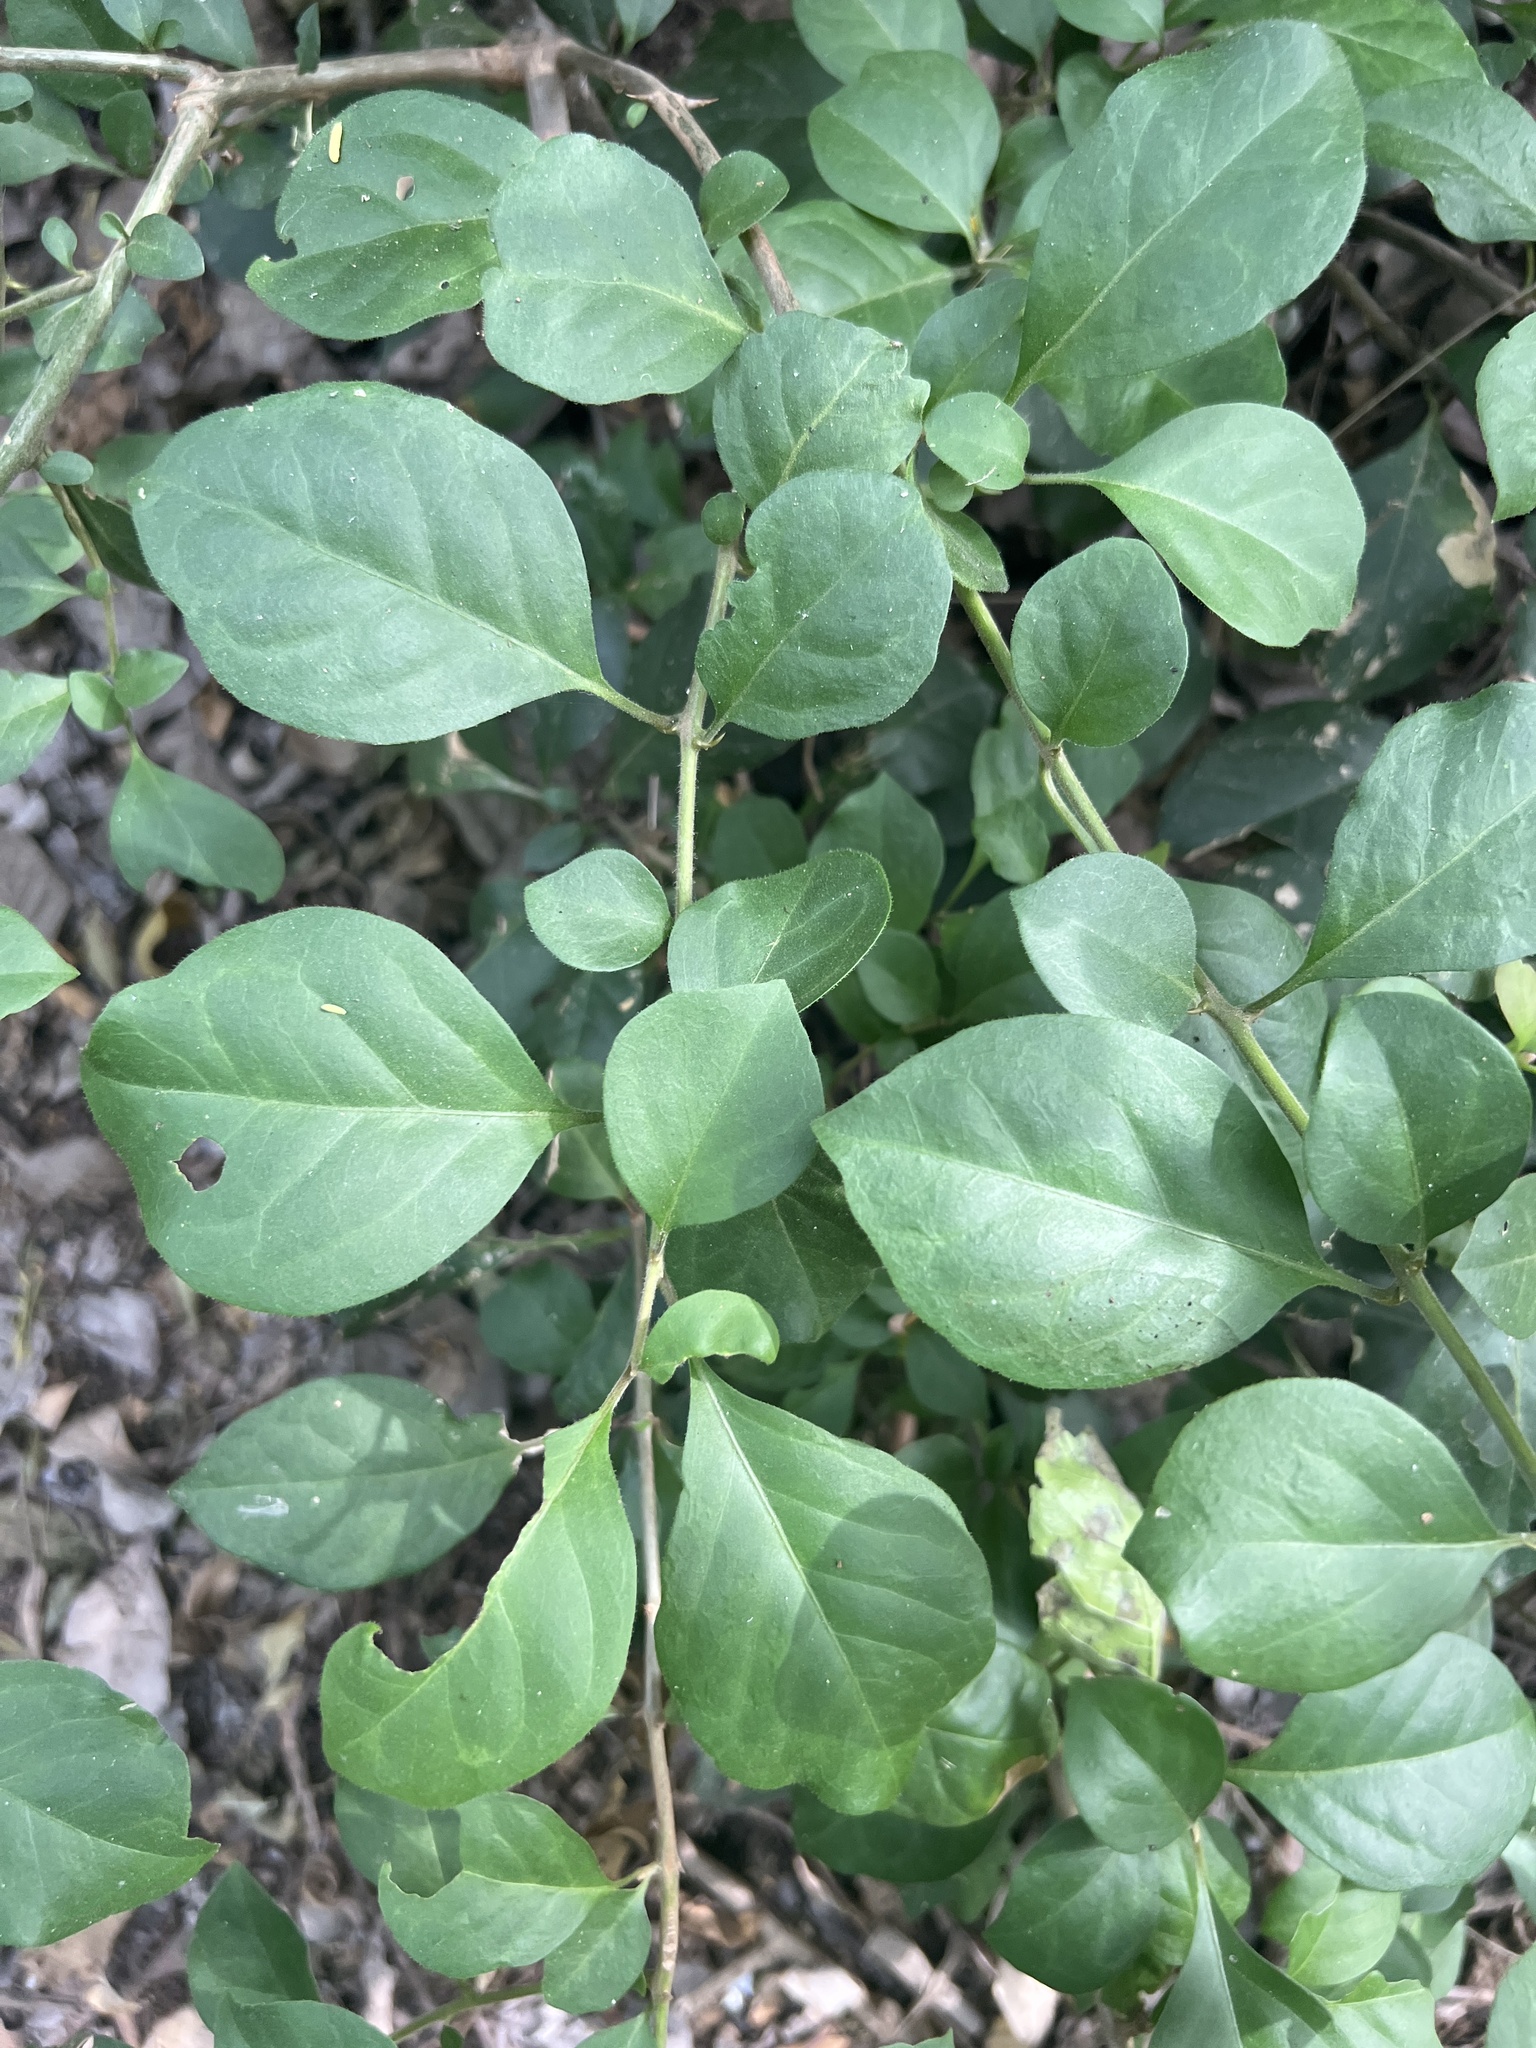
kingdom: Plantae
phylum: Tracheophyta
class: Magnoliopsida
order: Caryophyllales
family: Nyctaginaceae
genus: Pisonia
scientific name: Pisonia aculeata
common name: Cockspur vine
